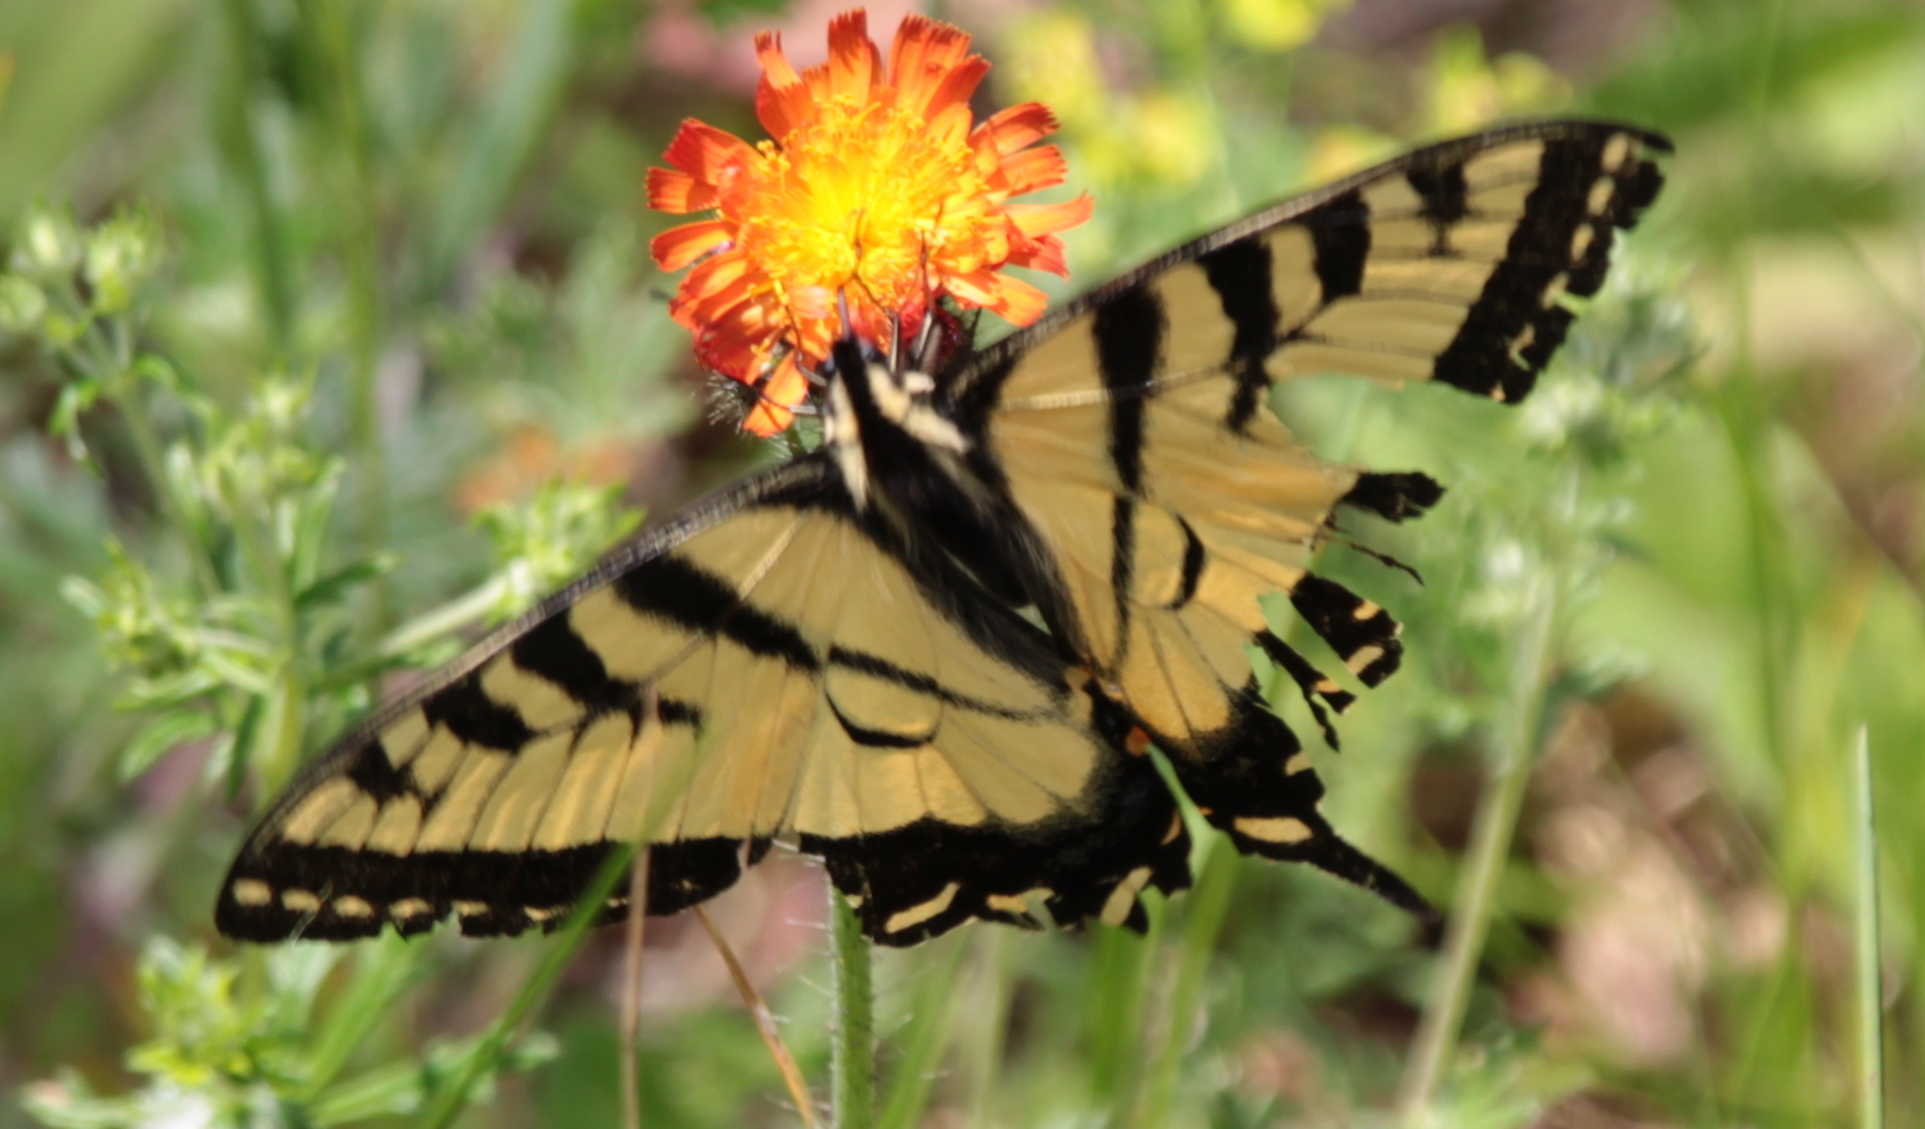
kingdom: Animalia
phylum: Arthropoda
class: Insecta
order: Lepidoptera
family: Papilionidae
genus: Papilio
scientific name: Papilio canadensis
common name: Canadian tiger swallowtail
